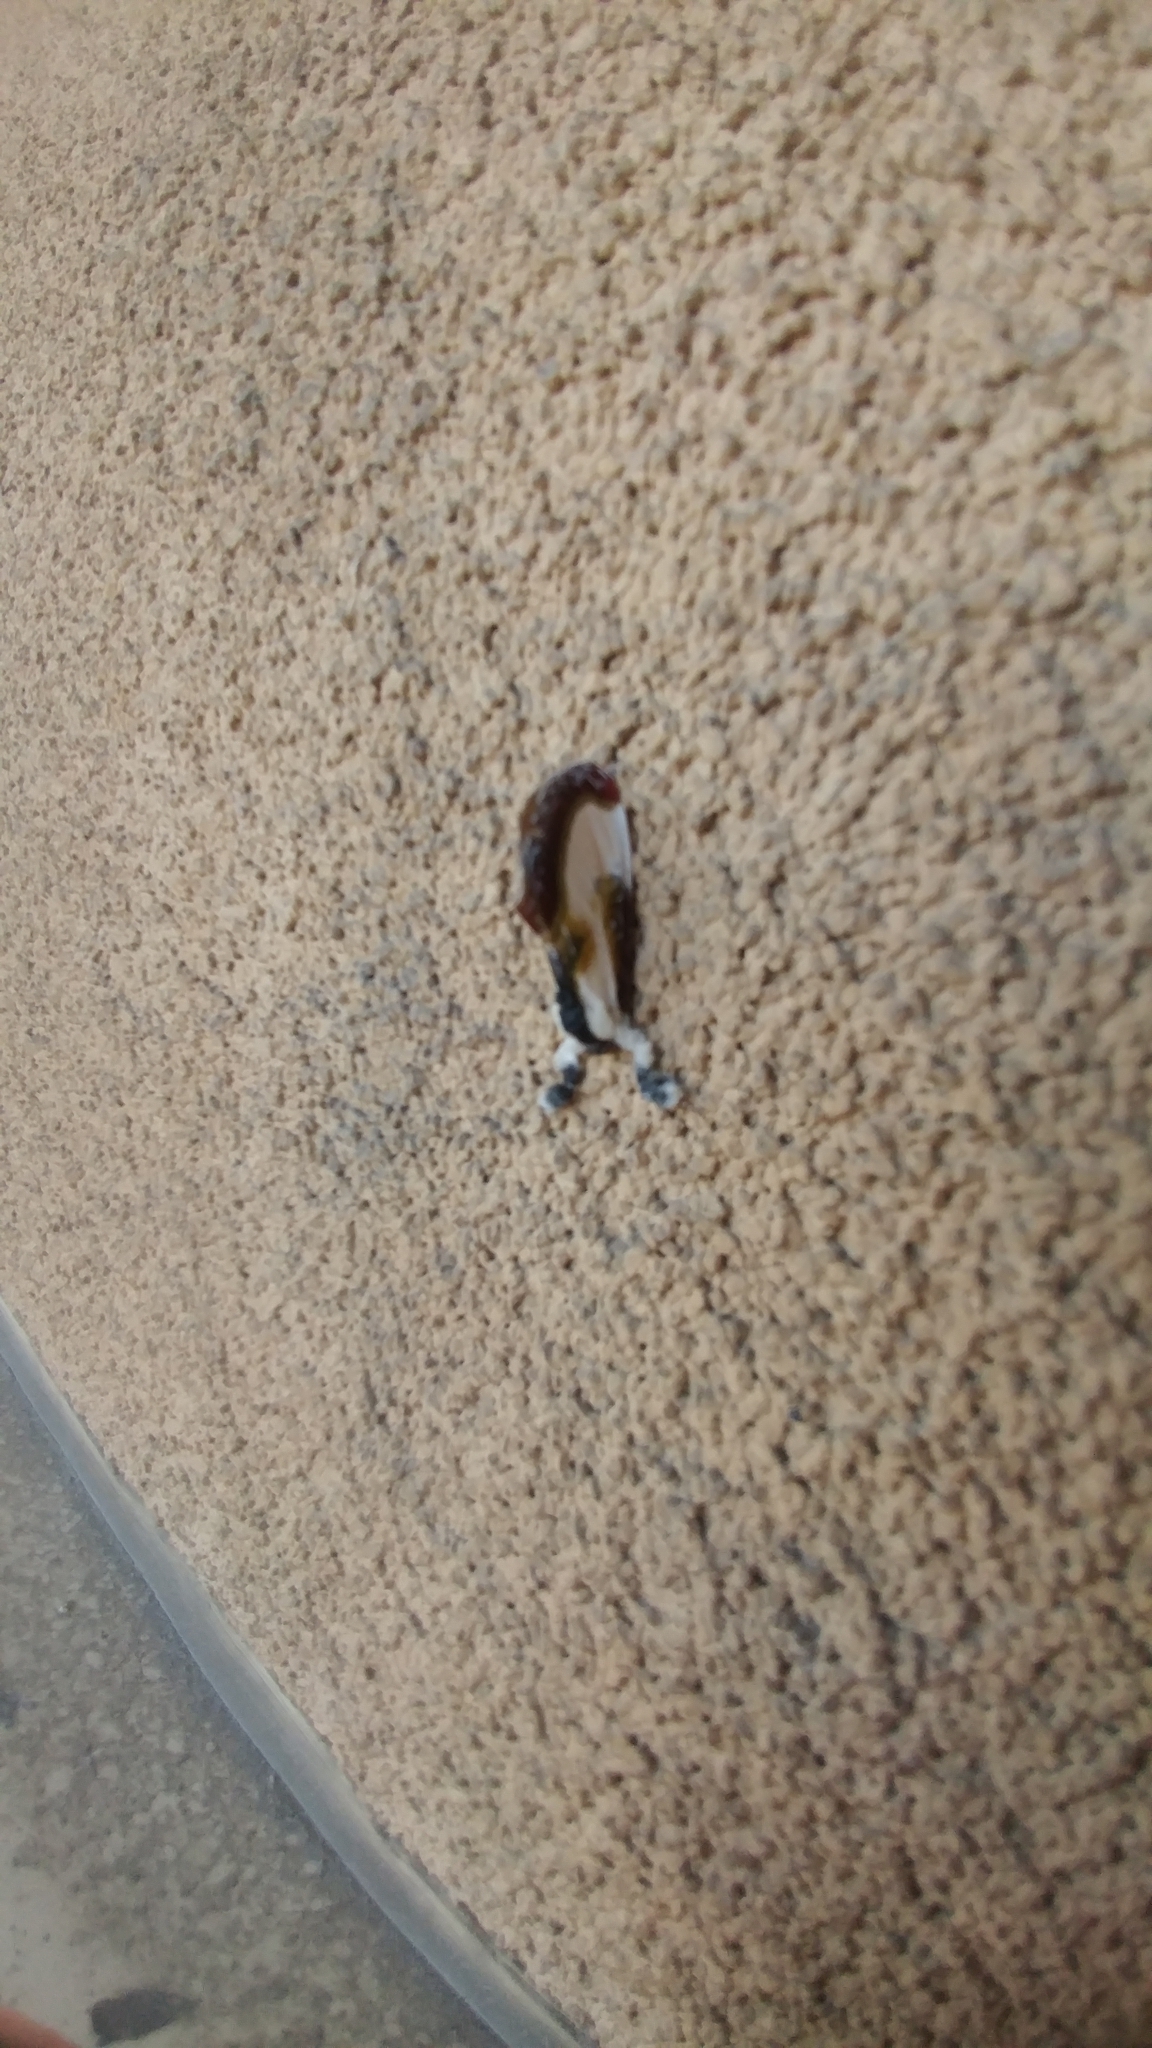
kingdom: Animalia
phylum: Arthropoda
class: Insecta
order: Lepidoptera
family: Noctuidae
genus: Eudryas
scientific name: Eudryas grata
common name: Beautiful wood-nymph
